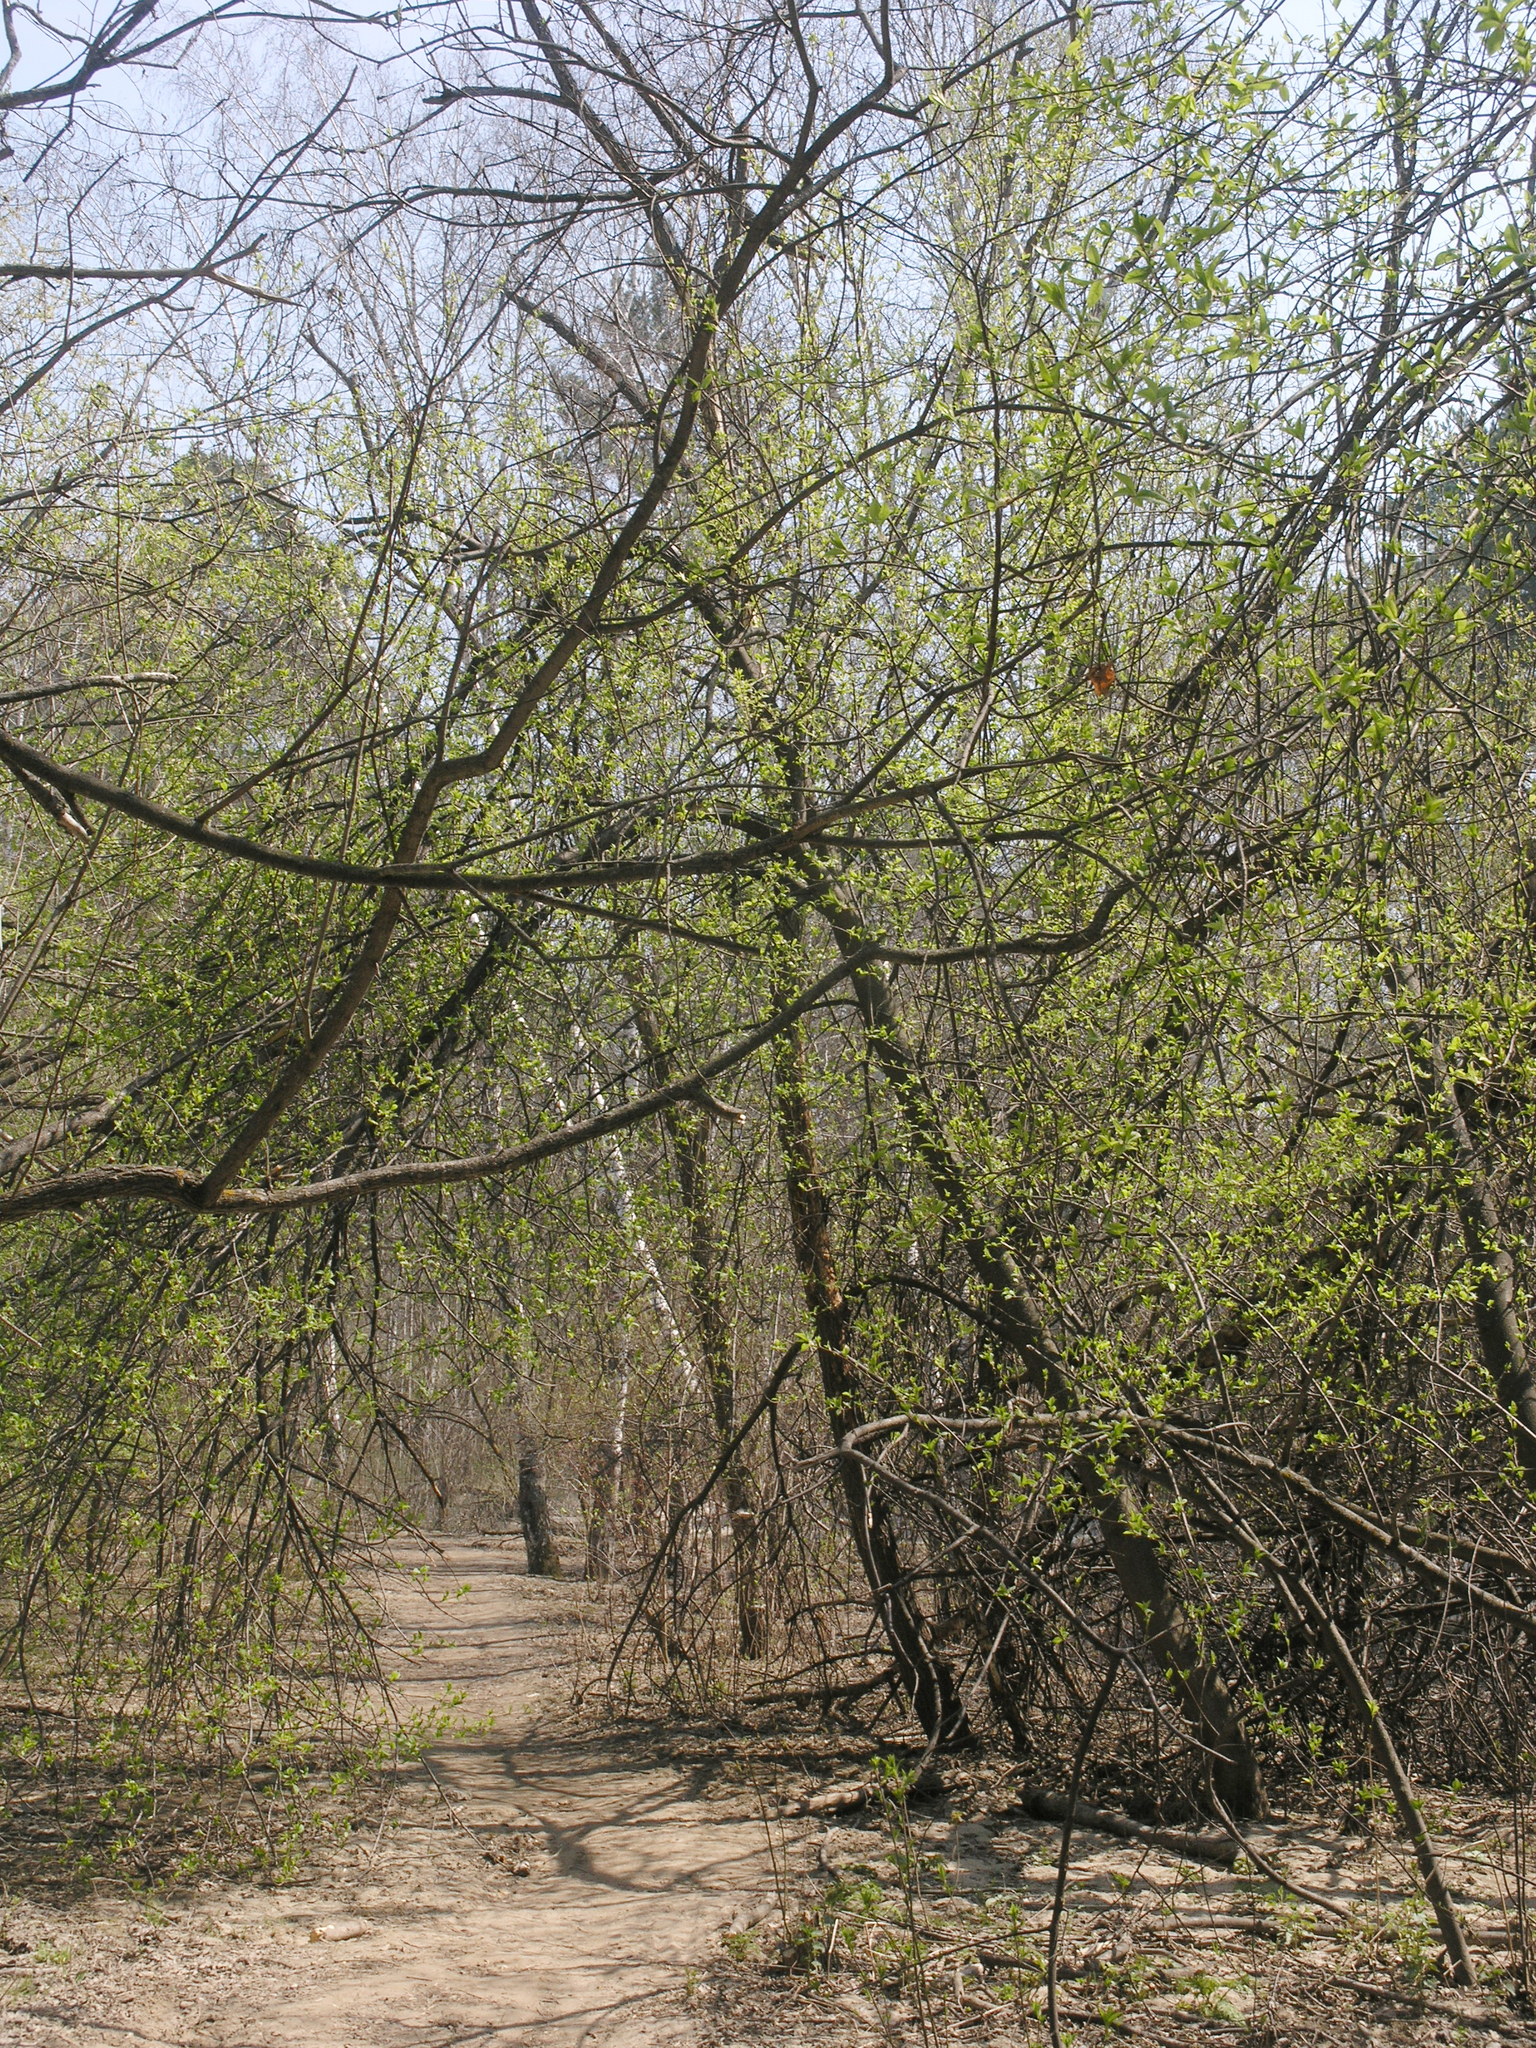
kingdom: Plantae
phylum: Tracheophyta
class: Magnoliopsida
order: Rosales
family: Rosaceae
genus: Prunus
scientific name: Prunus padus
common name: Bird cherry
